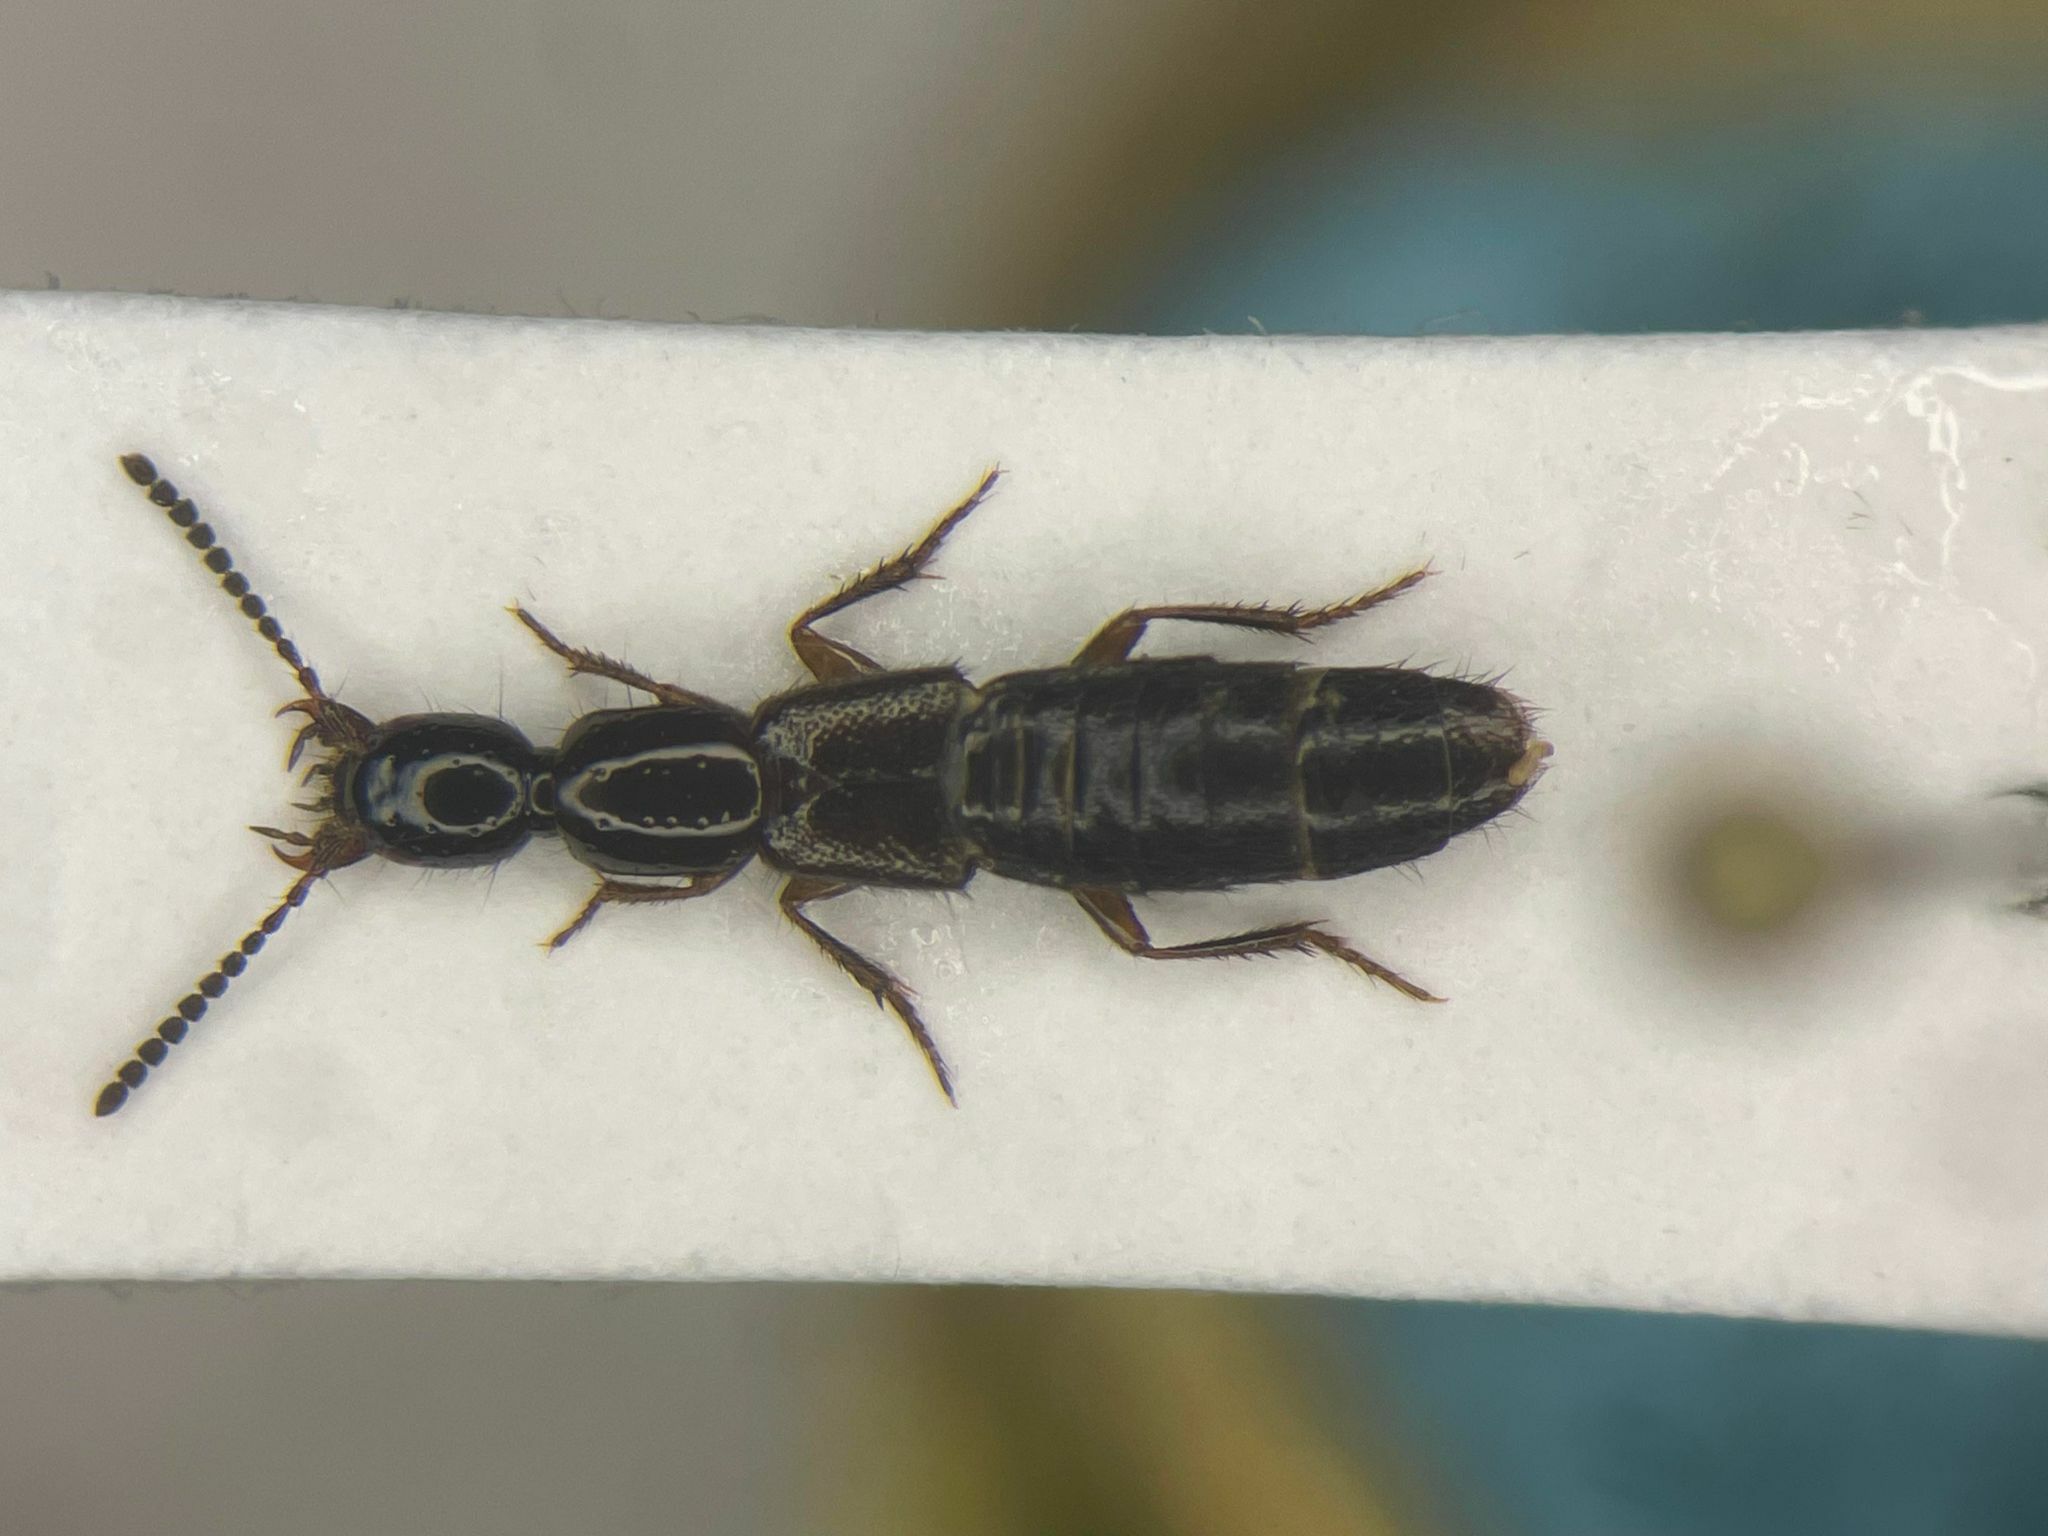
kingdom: Animalia
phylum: Arthropoda
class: Insecta
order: Coleoptera
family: Staphylinidae
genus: Gabrius
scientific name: Gabrius brevipennis
